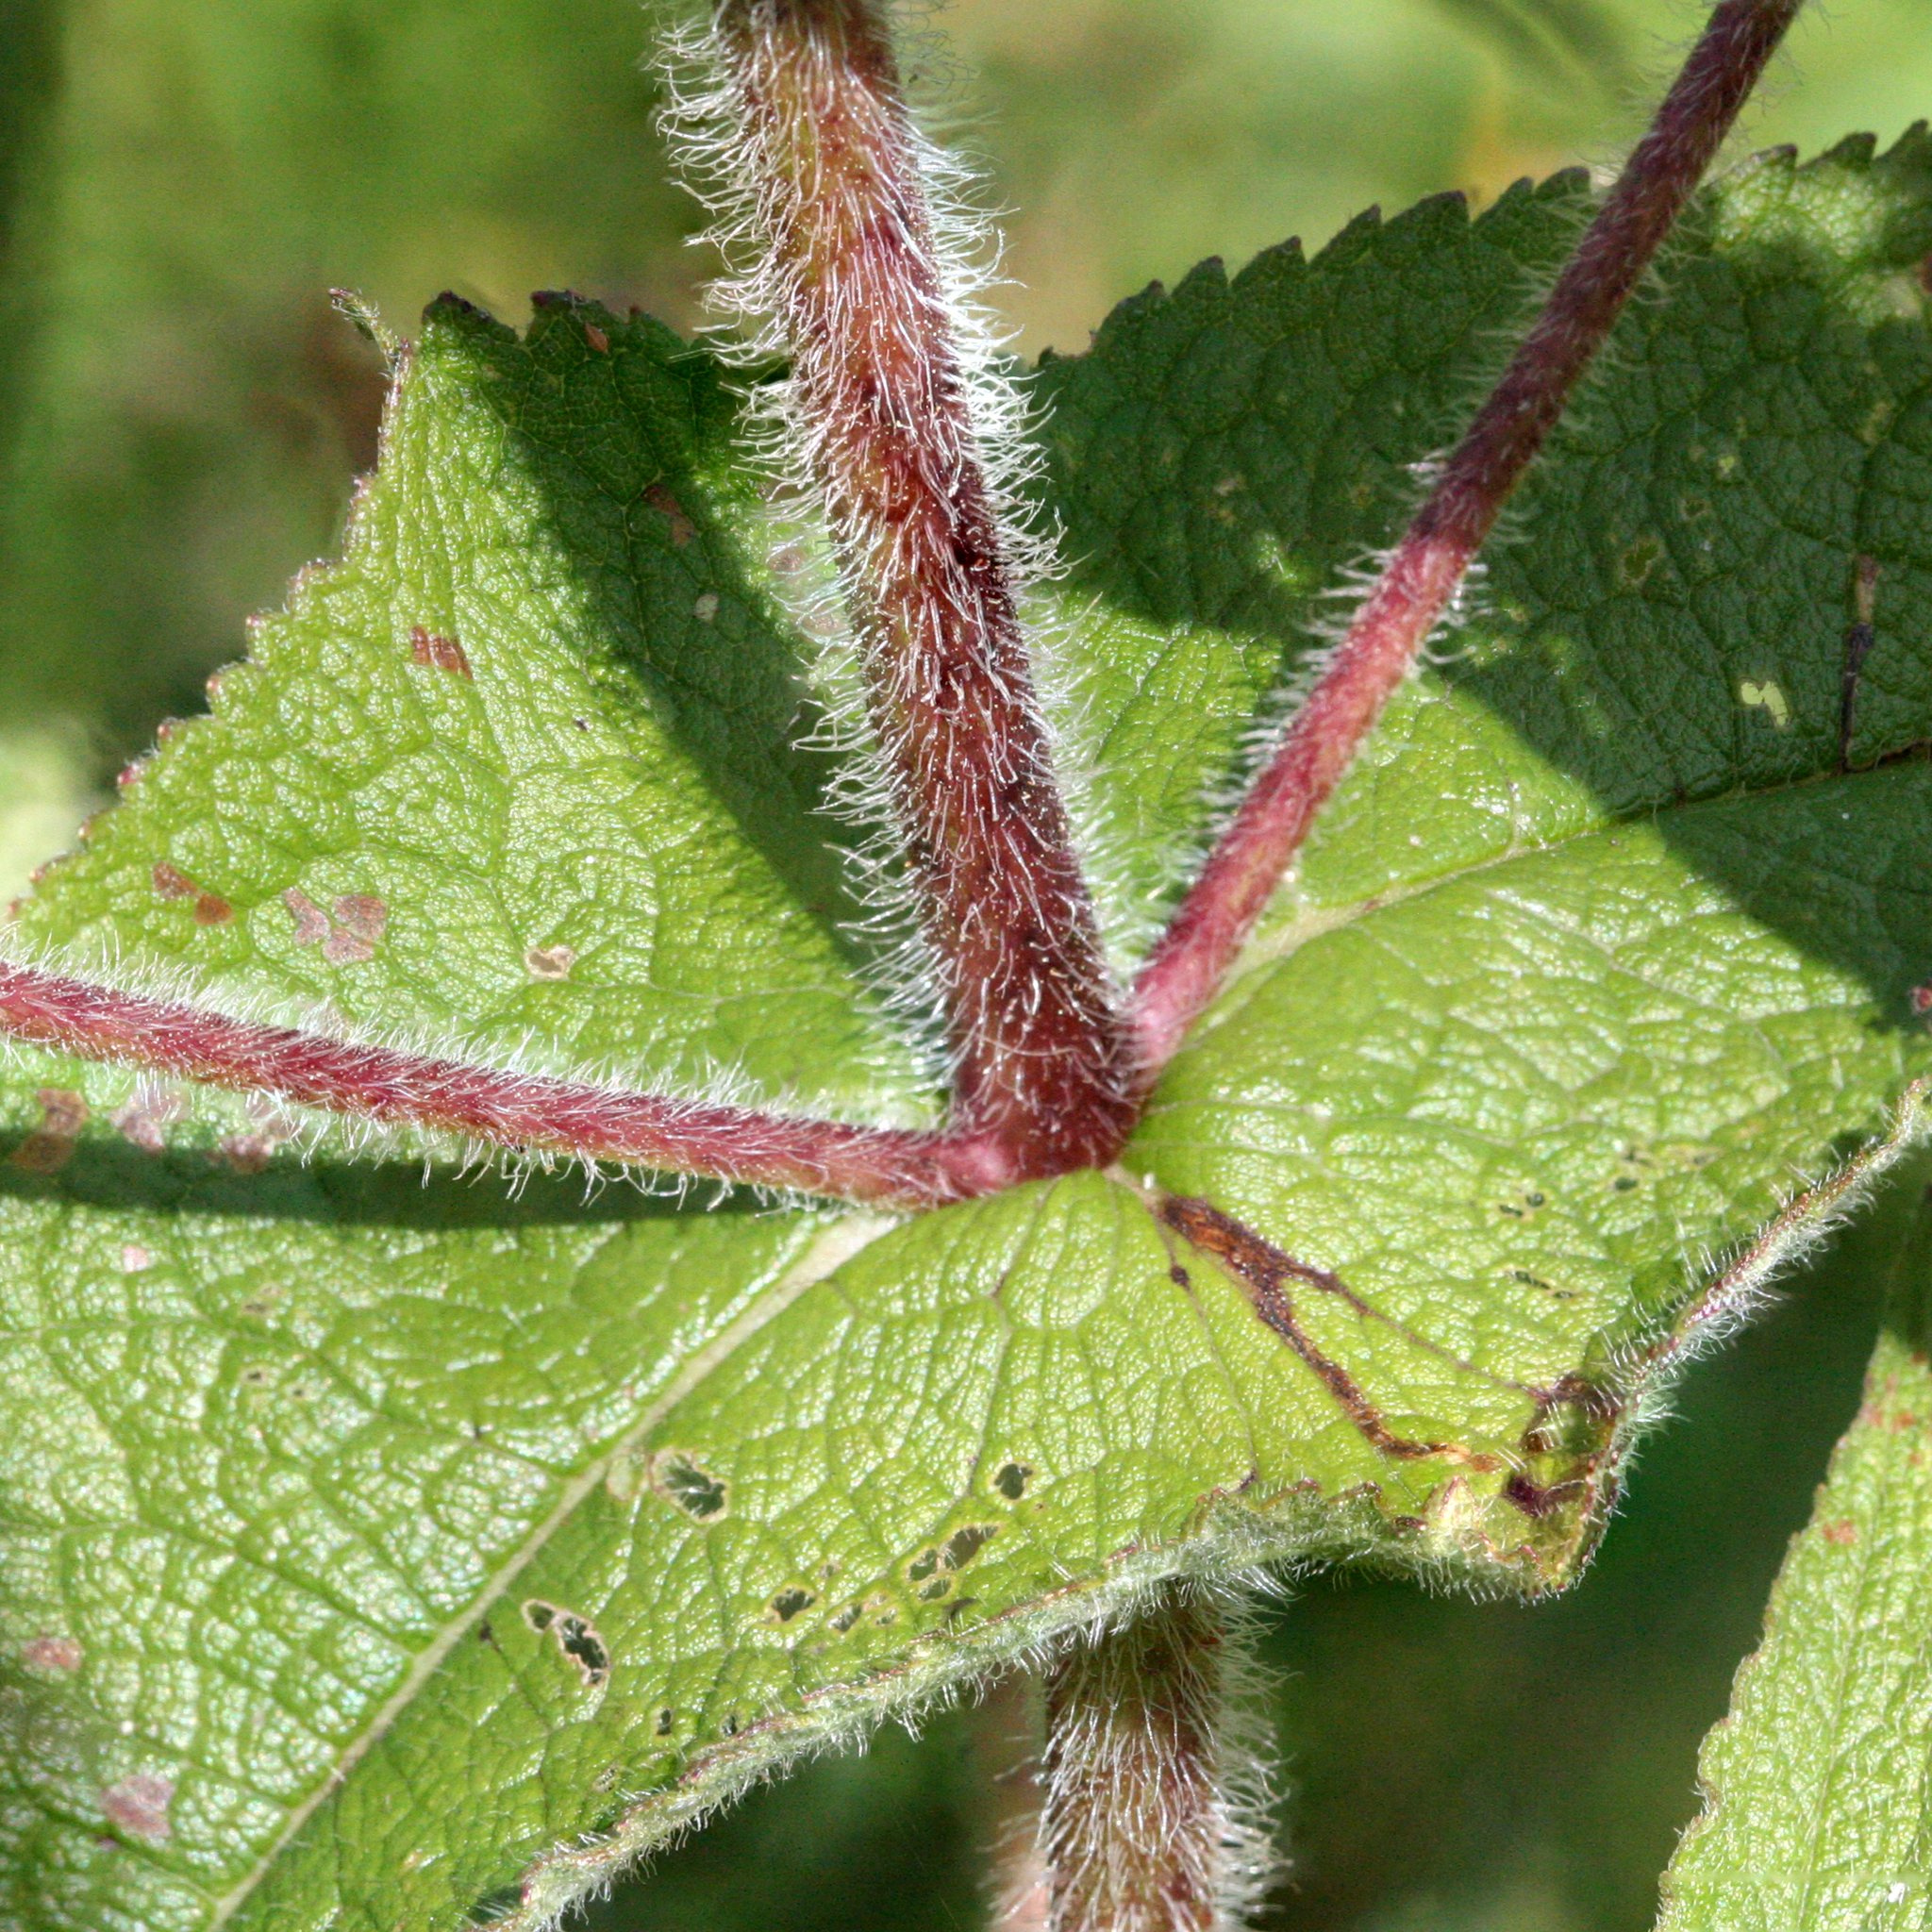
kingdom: Plantae
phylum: Tracheophyta
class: Magnoliopsida
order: Asterales
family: Asteraceae
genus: Eupatorium
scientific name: Eupatorium perfoliatum
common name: Boneset
